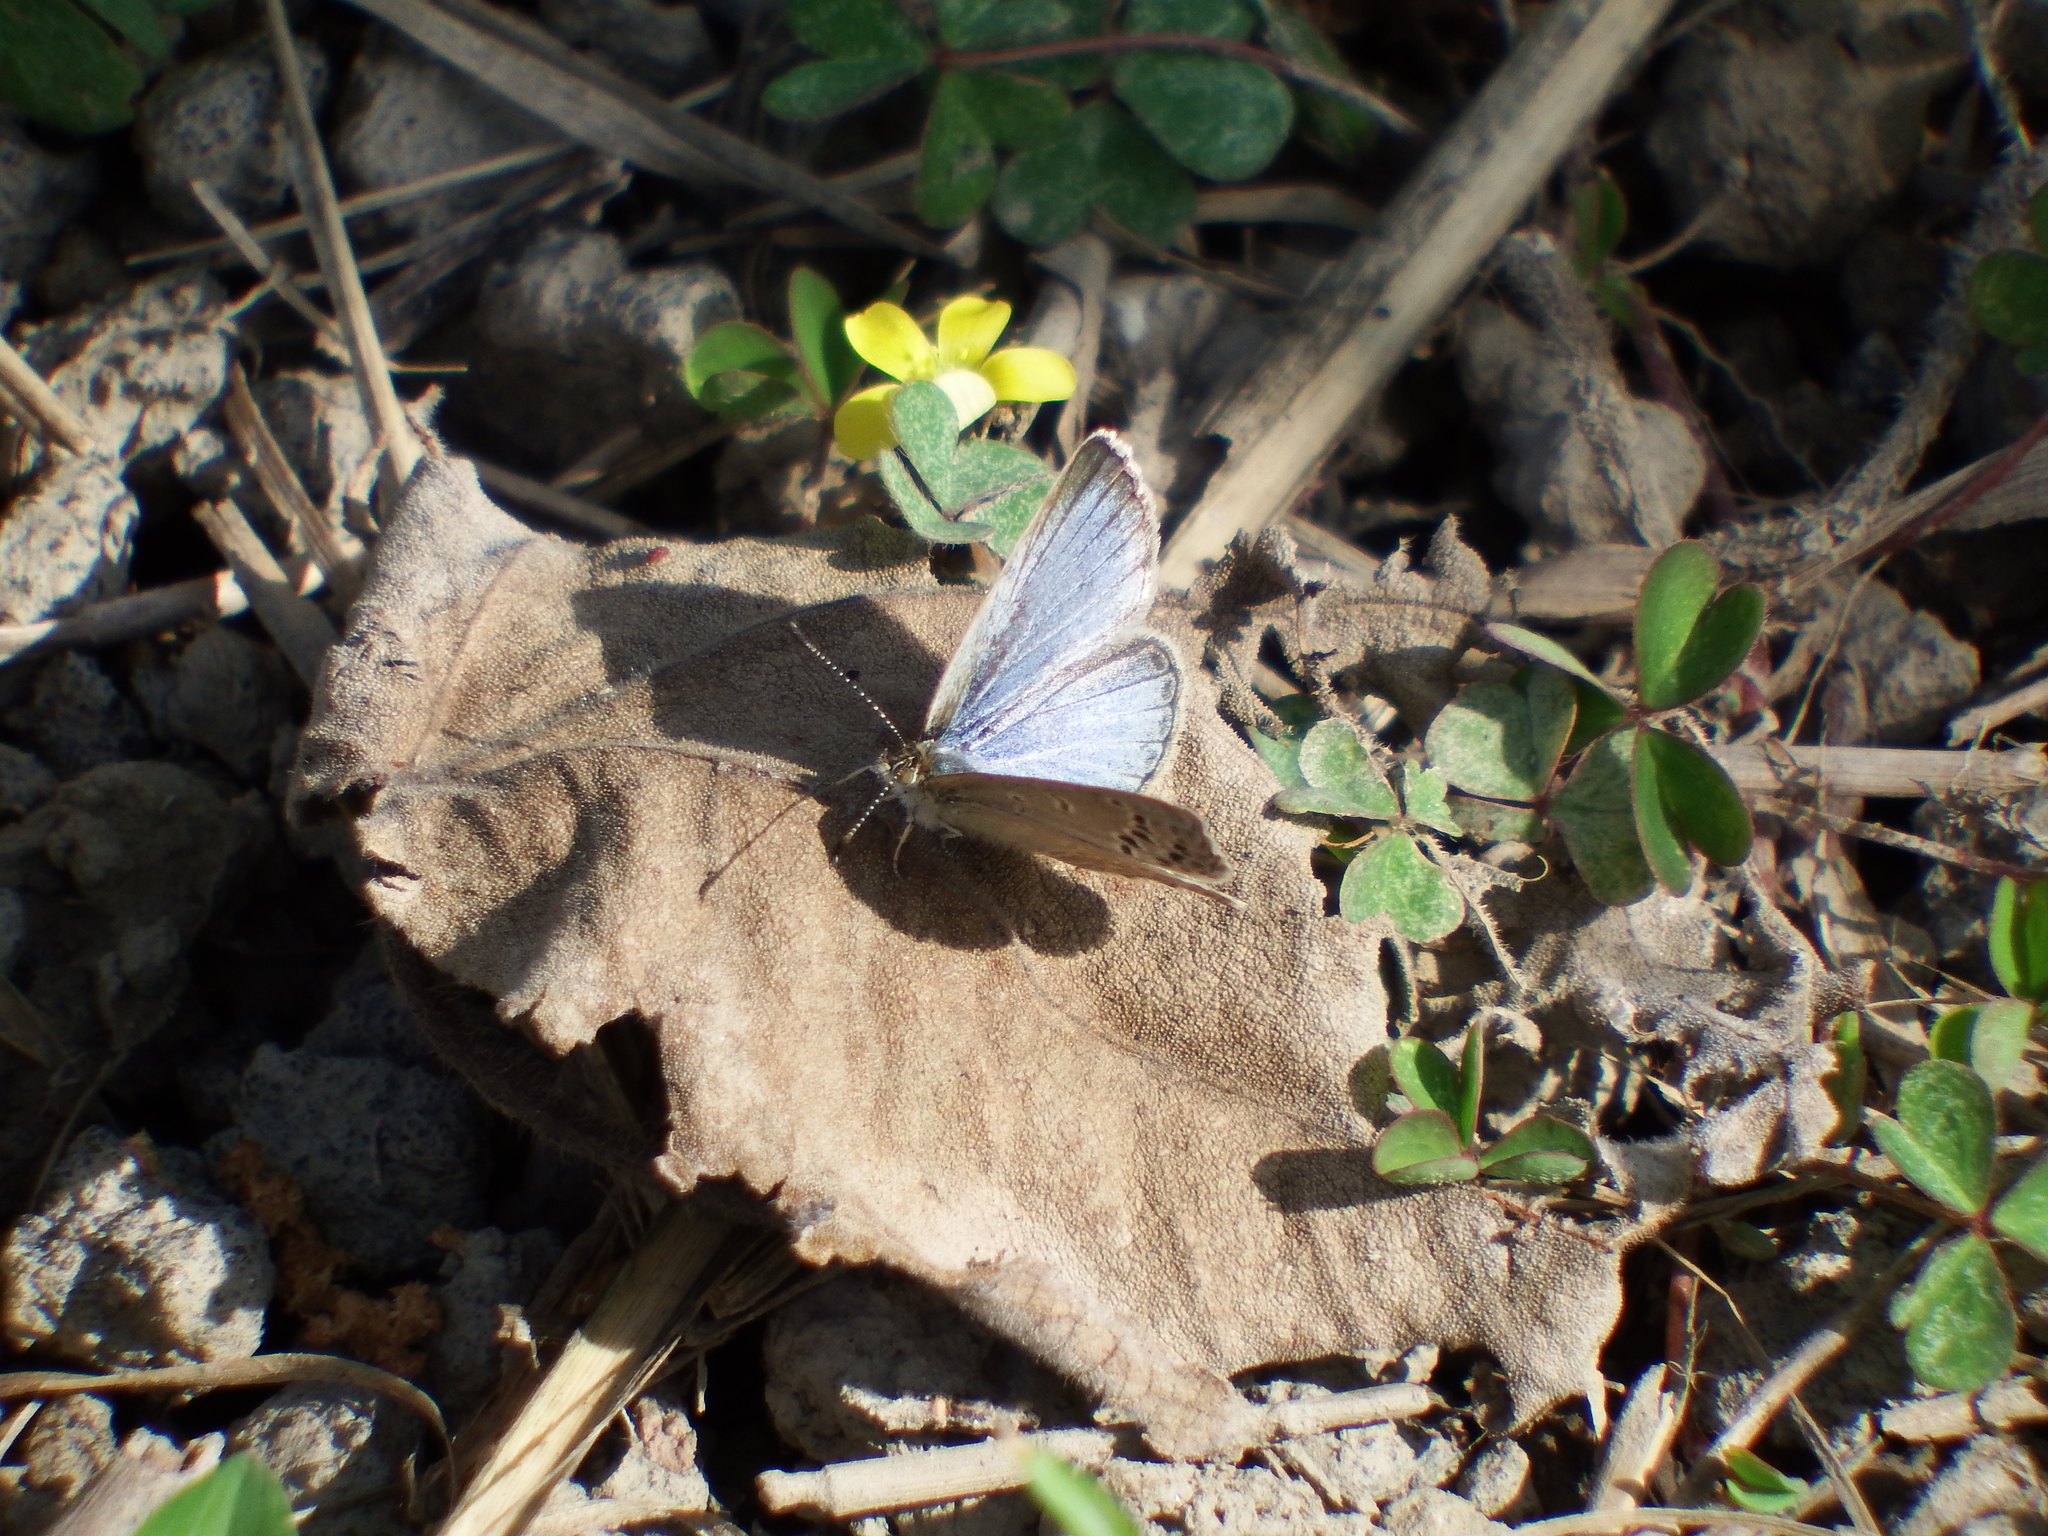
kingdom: Animalia
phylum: Arthropoda
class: Insecta
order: Lepidoptera
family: Lycaenidae
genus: Pseudozizeeria
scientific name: Pseudozizeeria maha
